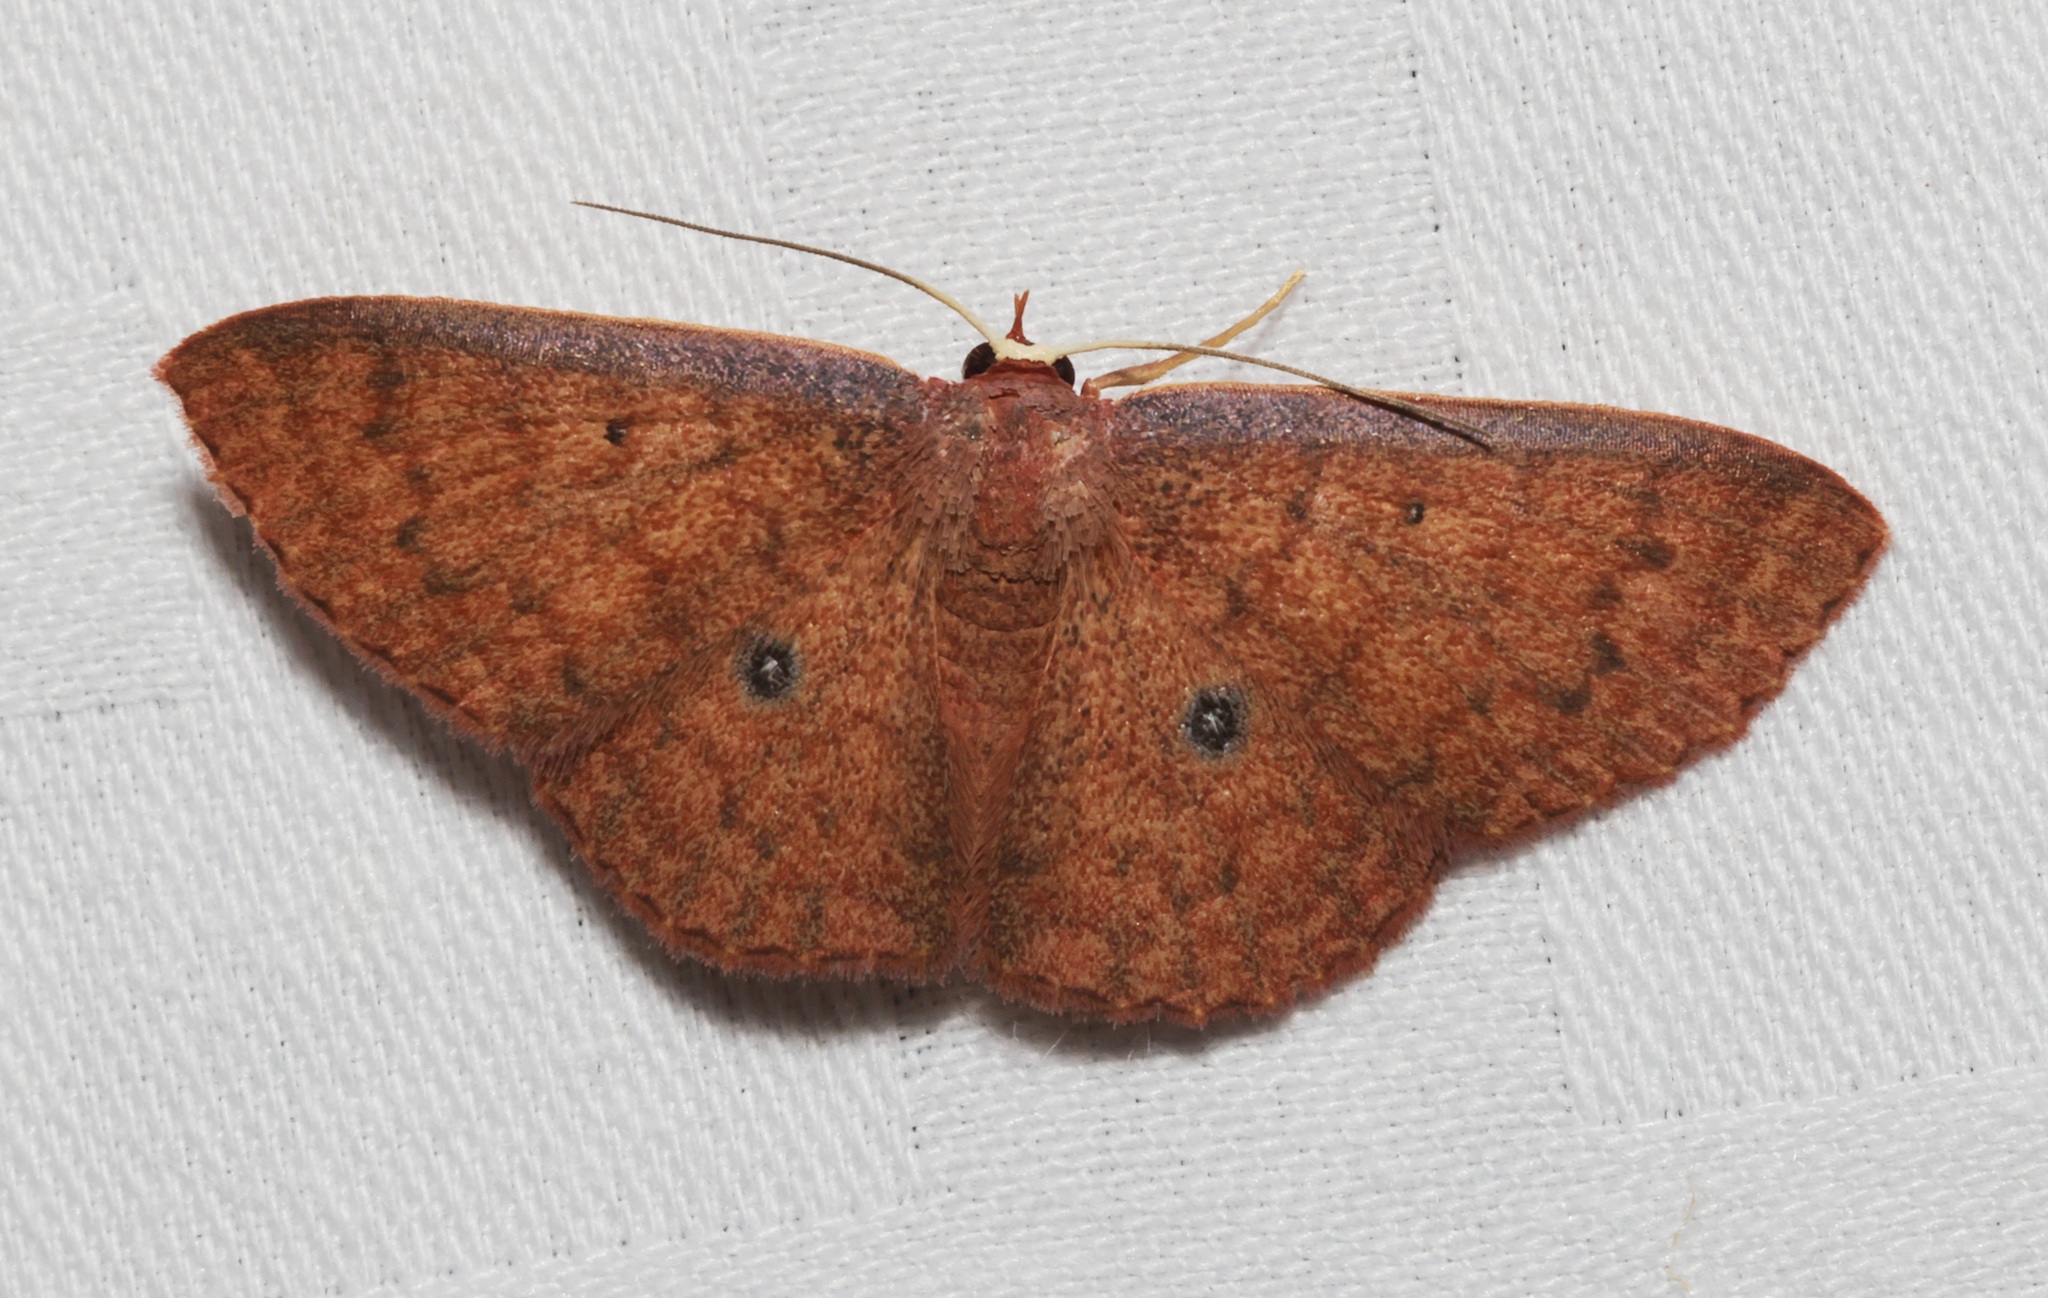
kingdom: Animalia
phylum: Arthropoda
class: Insecta
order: Lepidoptera
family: Geometridae
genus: Organopoda
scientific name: Organopoda carnearia
